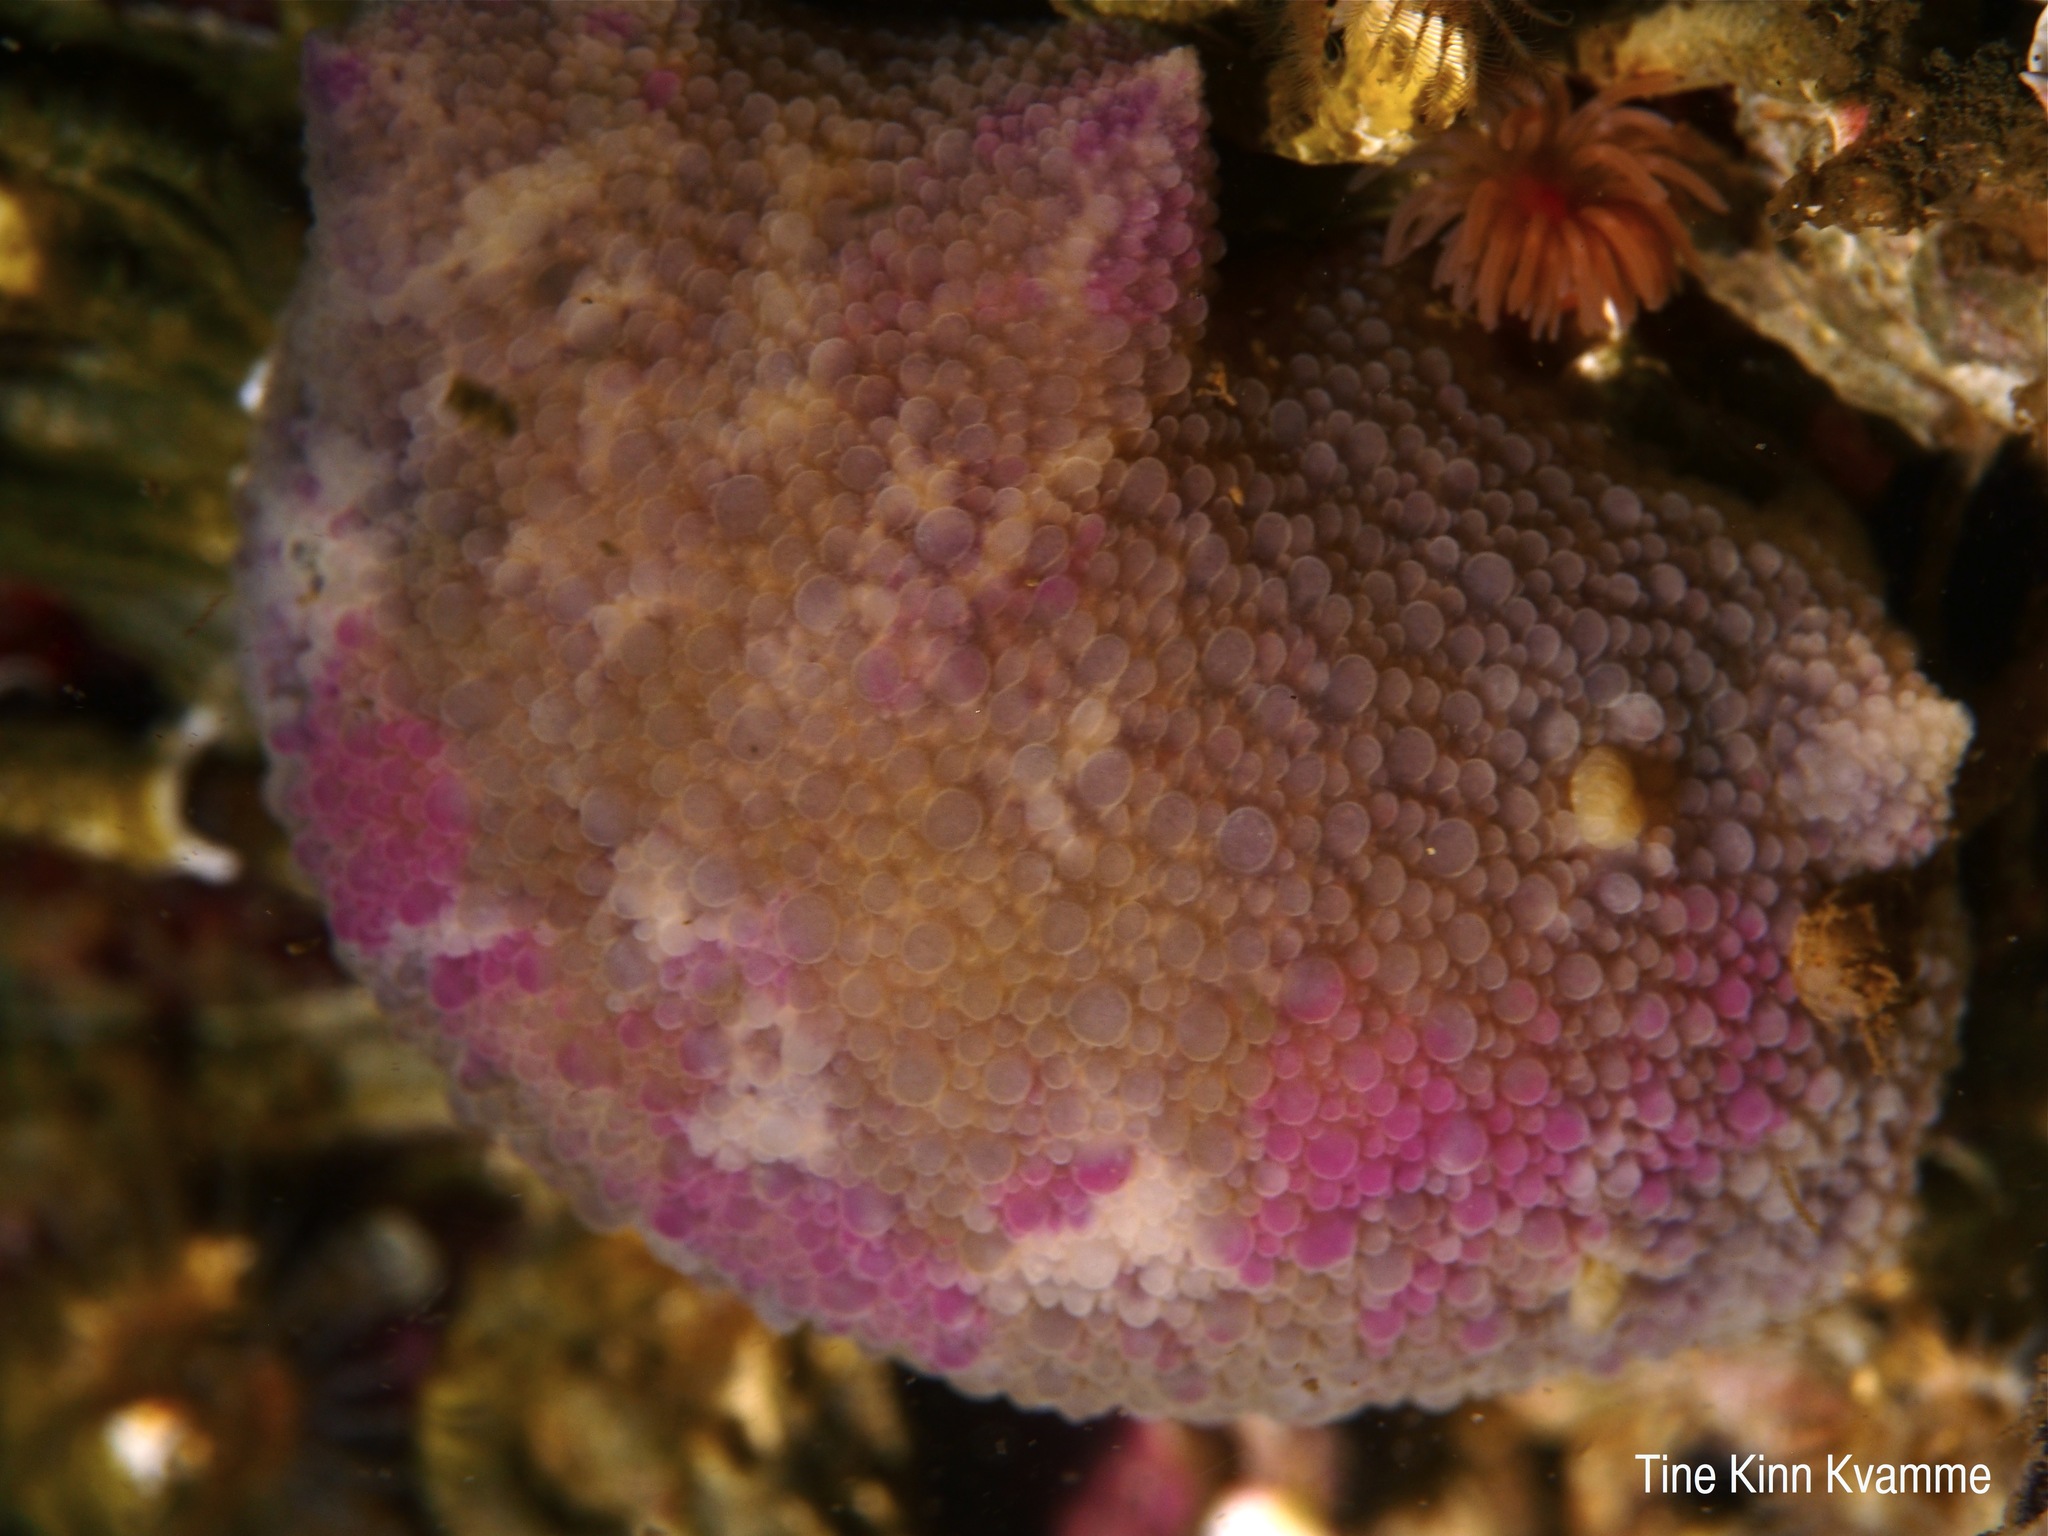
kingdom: Animalia
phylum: Mollusca
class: Gastropoda
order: Nudibranchia
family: Dorididae
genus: Doris
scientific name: Doris pseudoargus
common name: Sea lemon
